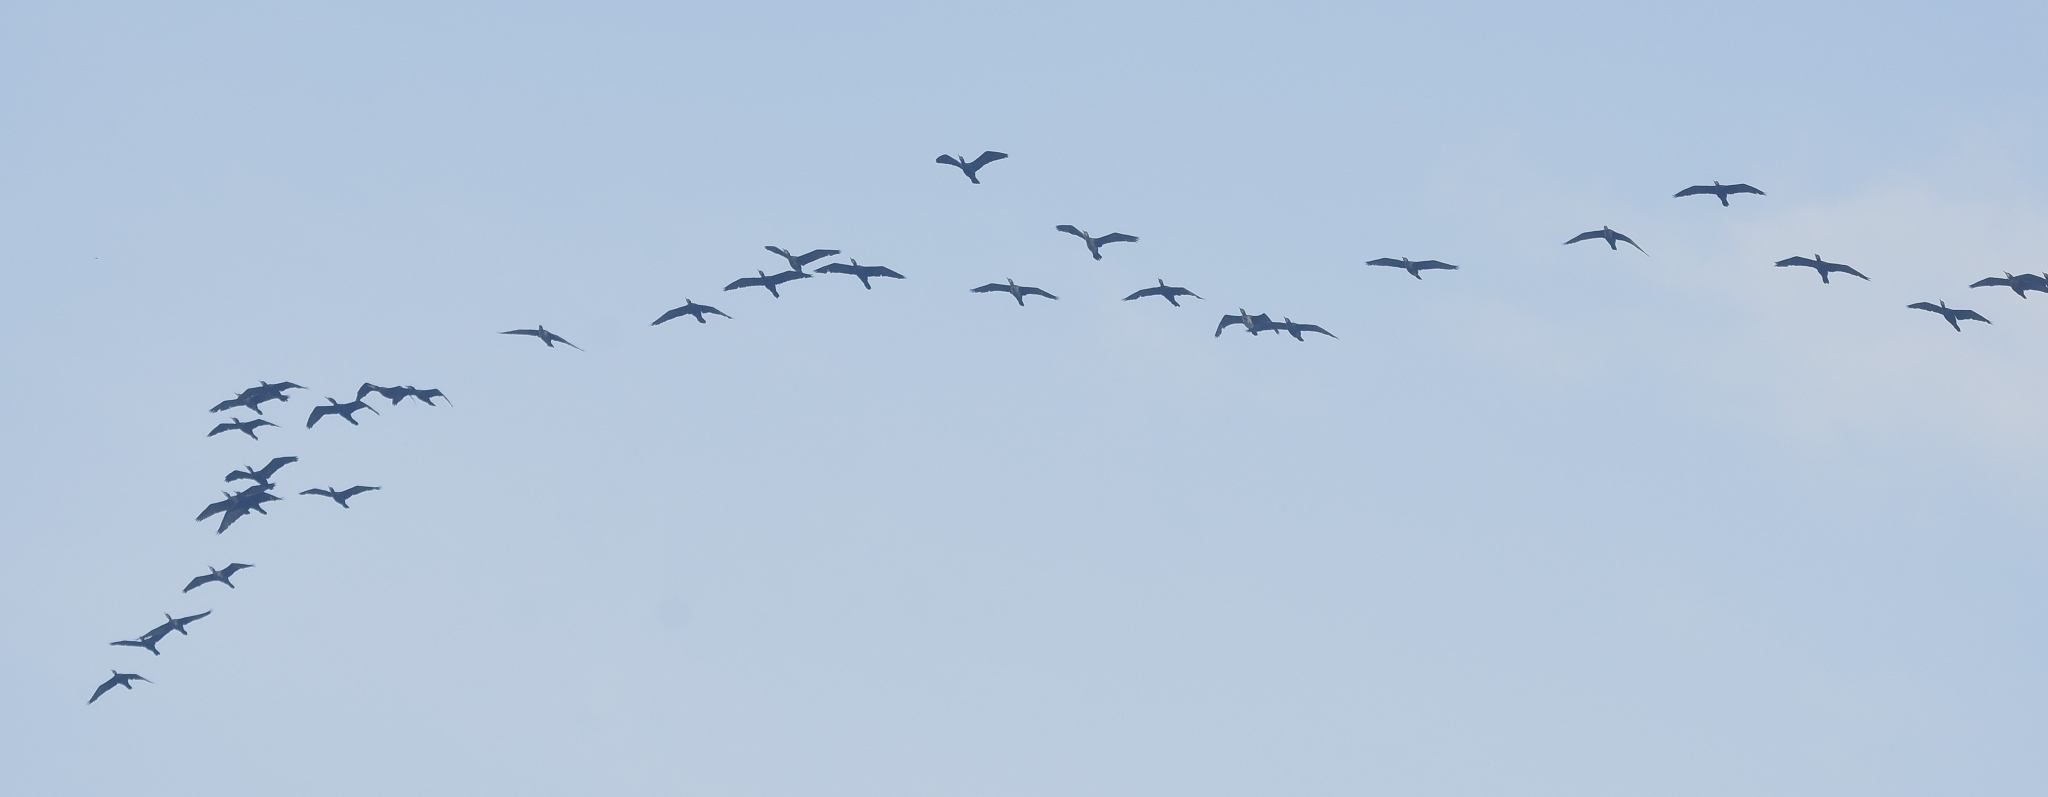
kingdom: Animalia
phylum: Chordata
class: Aves
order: Suliformes
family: Phalacrocoracidae
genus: Phalacrocorax
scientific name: Phalacrocorax fuscicollis
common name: Indian cormorant
